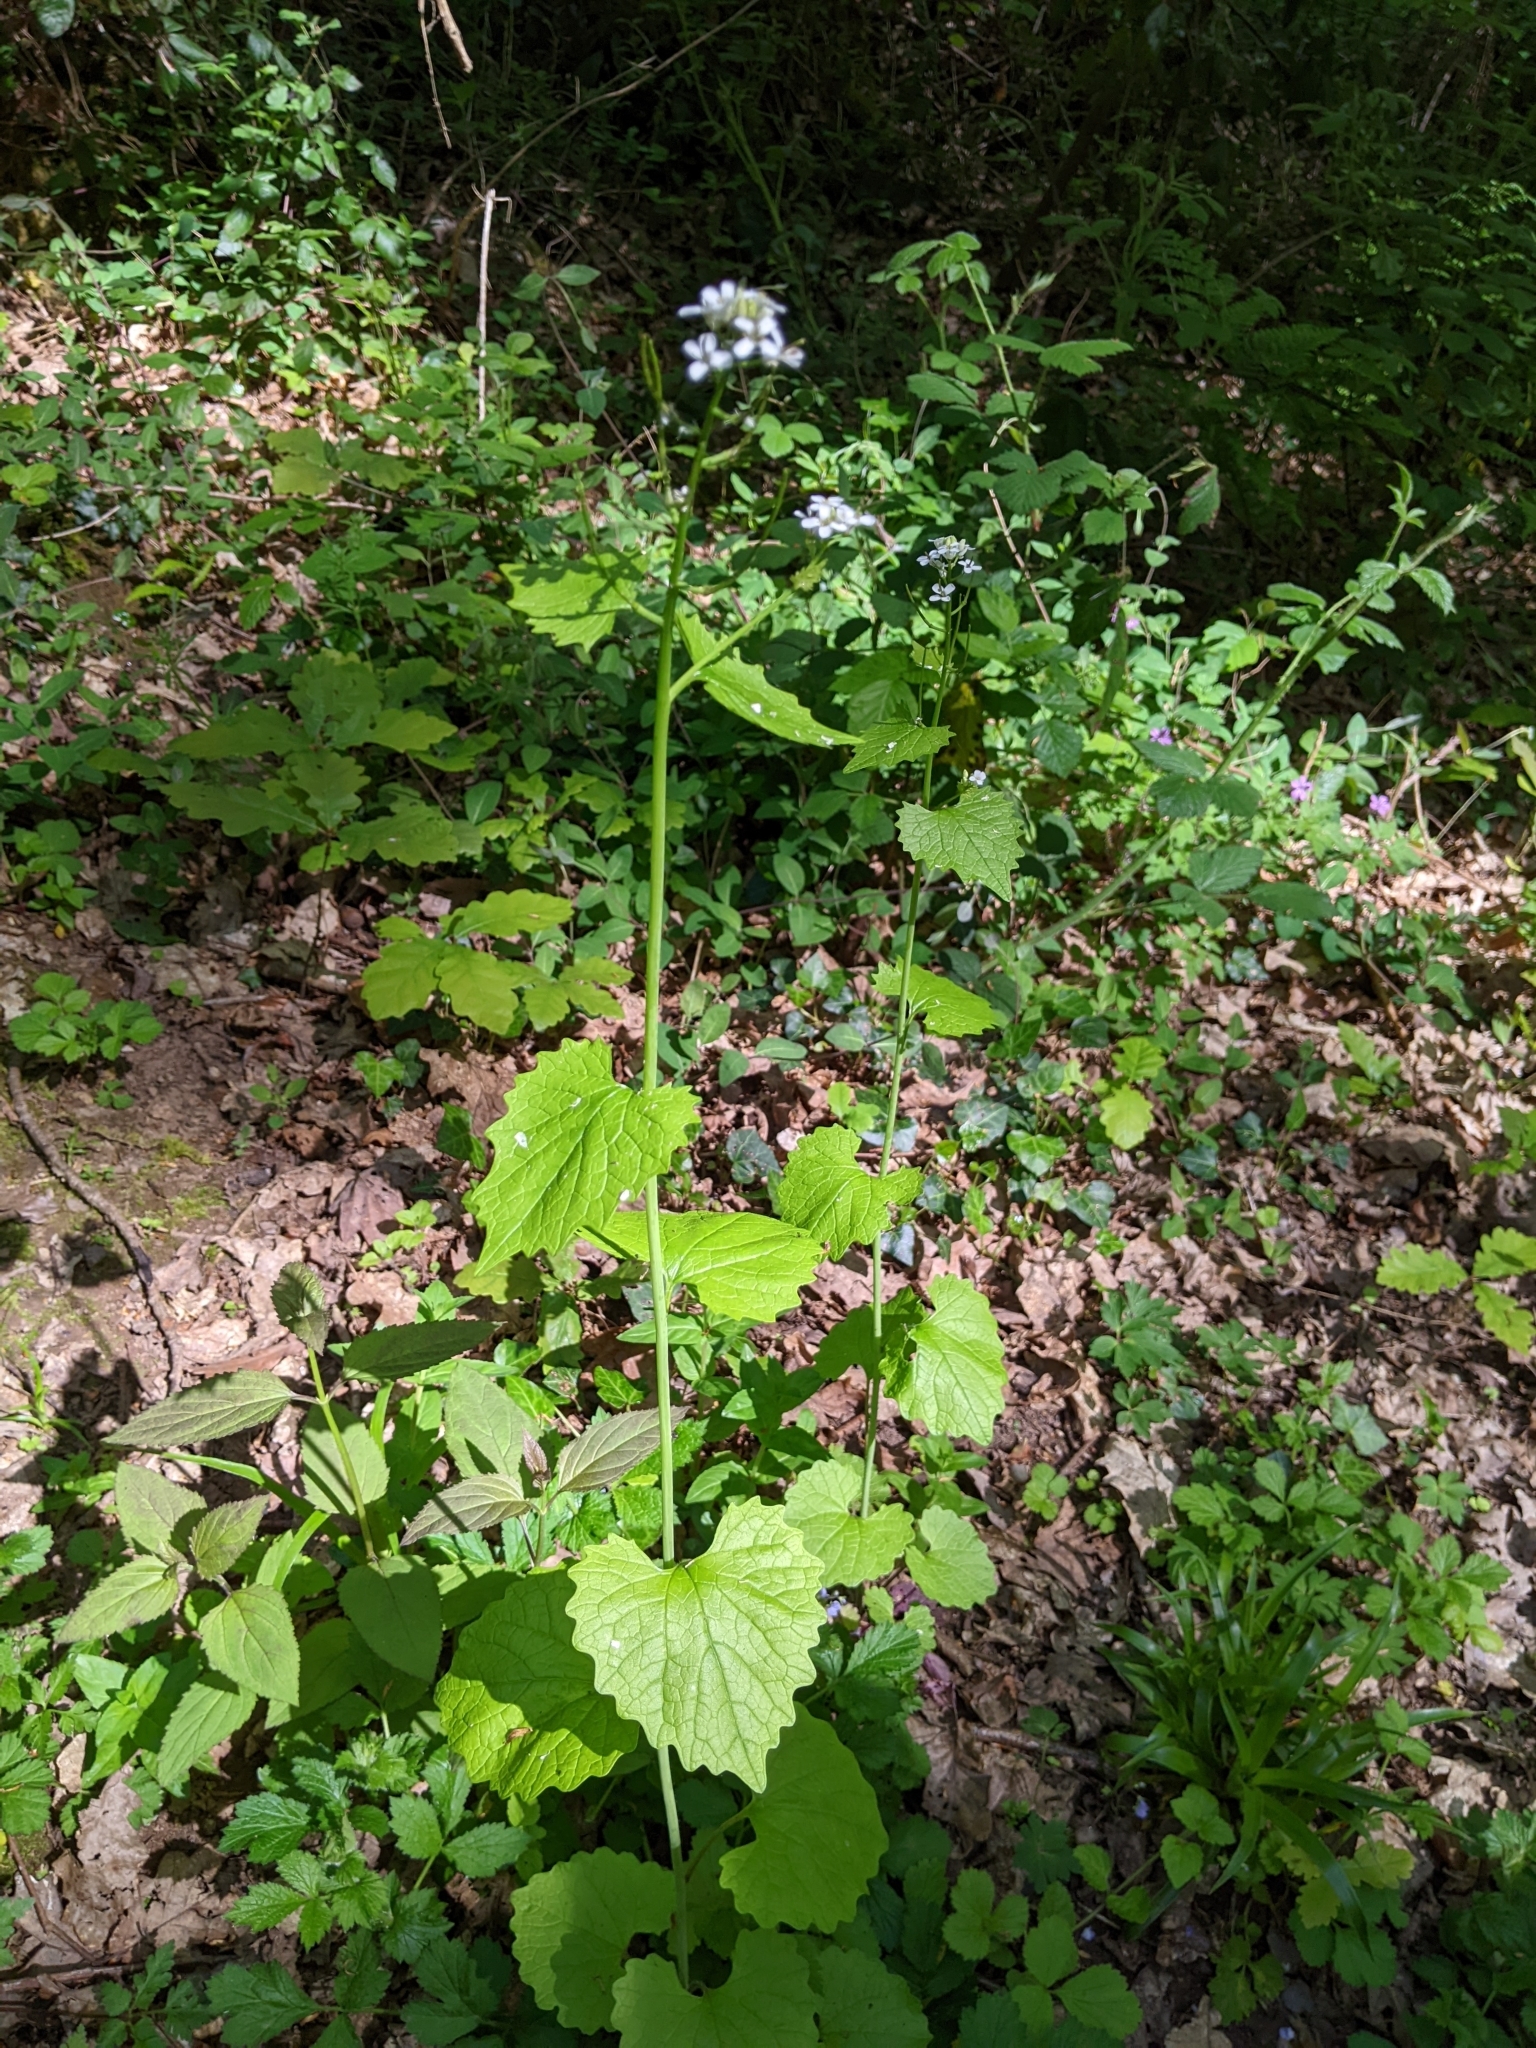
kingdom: Plantae
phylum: Tracheophyta
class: Magnoliopsida
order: Brassicales
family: Brassicaceae
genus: Alliaria
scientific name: Alliaria petiolata
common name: Garlic mustard
